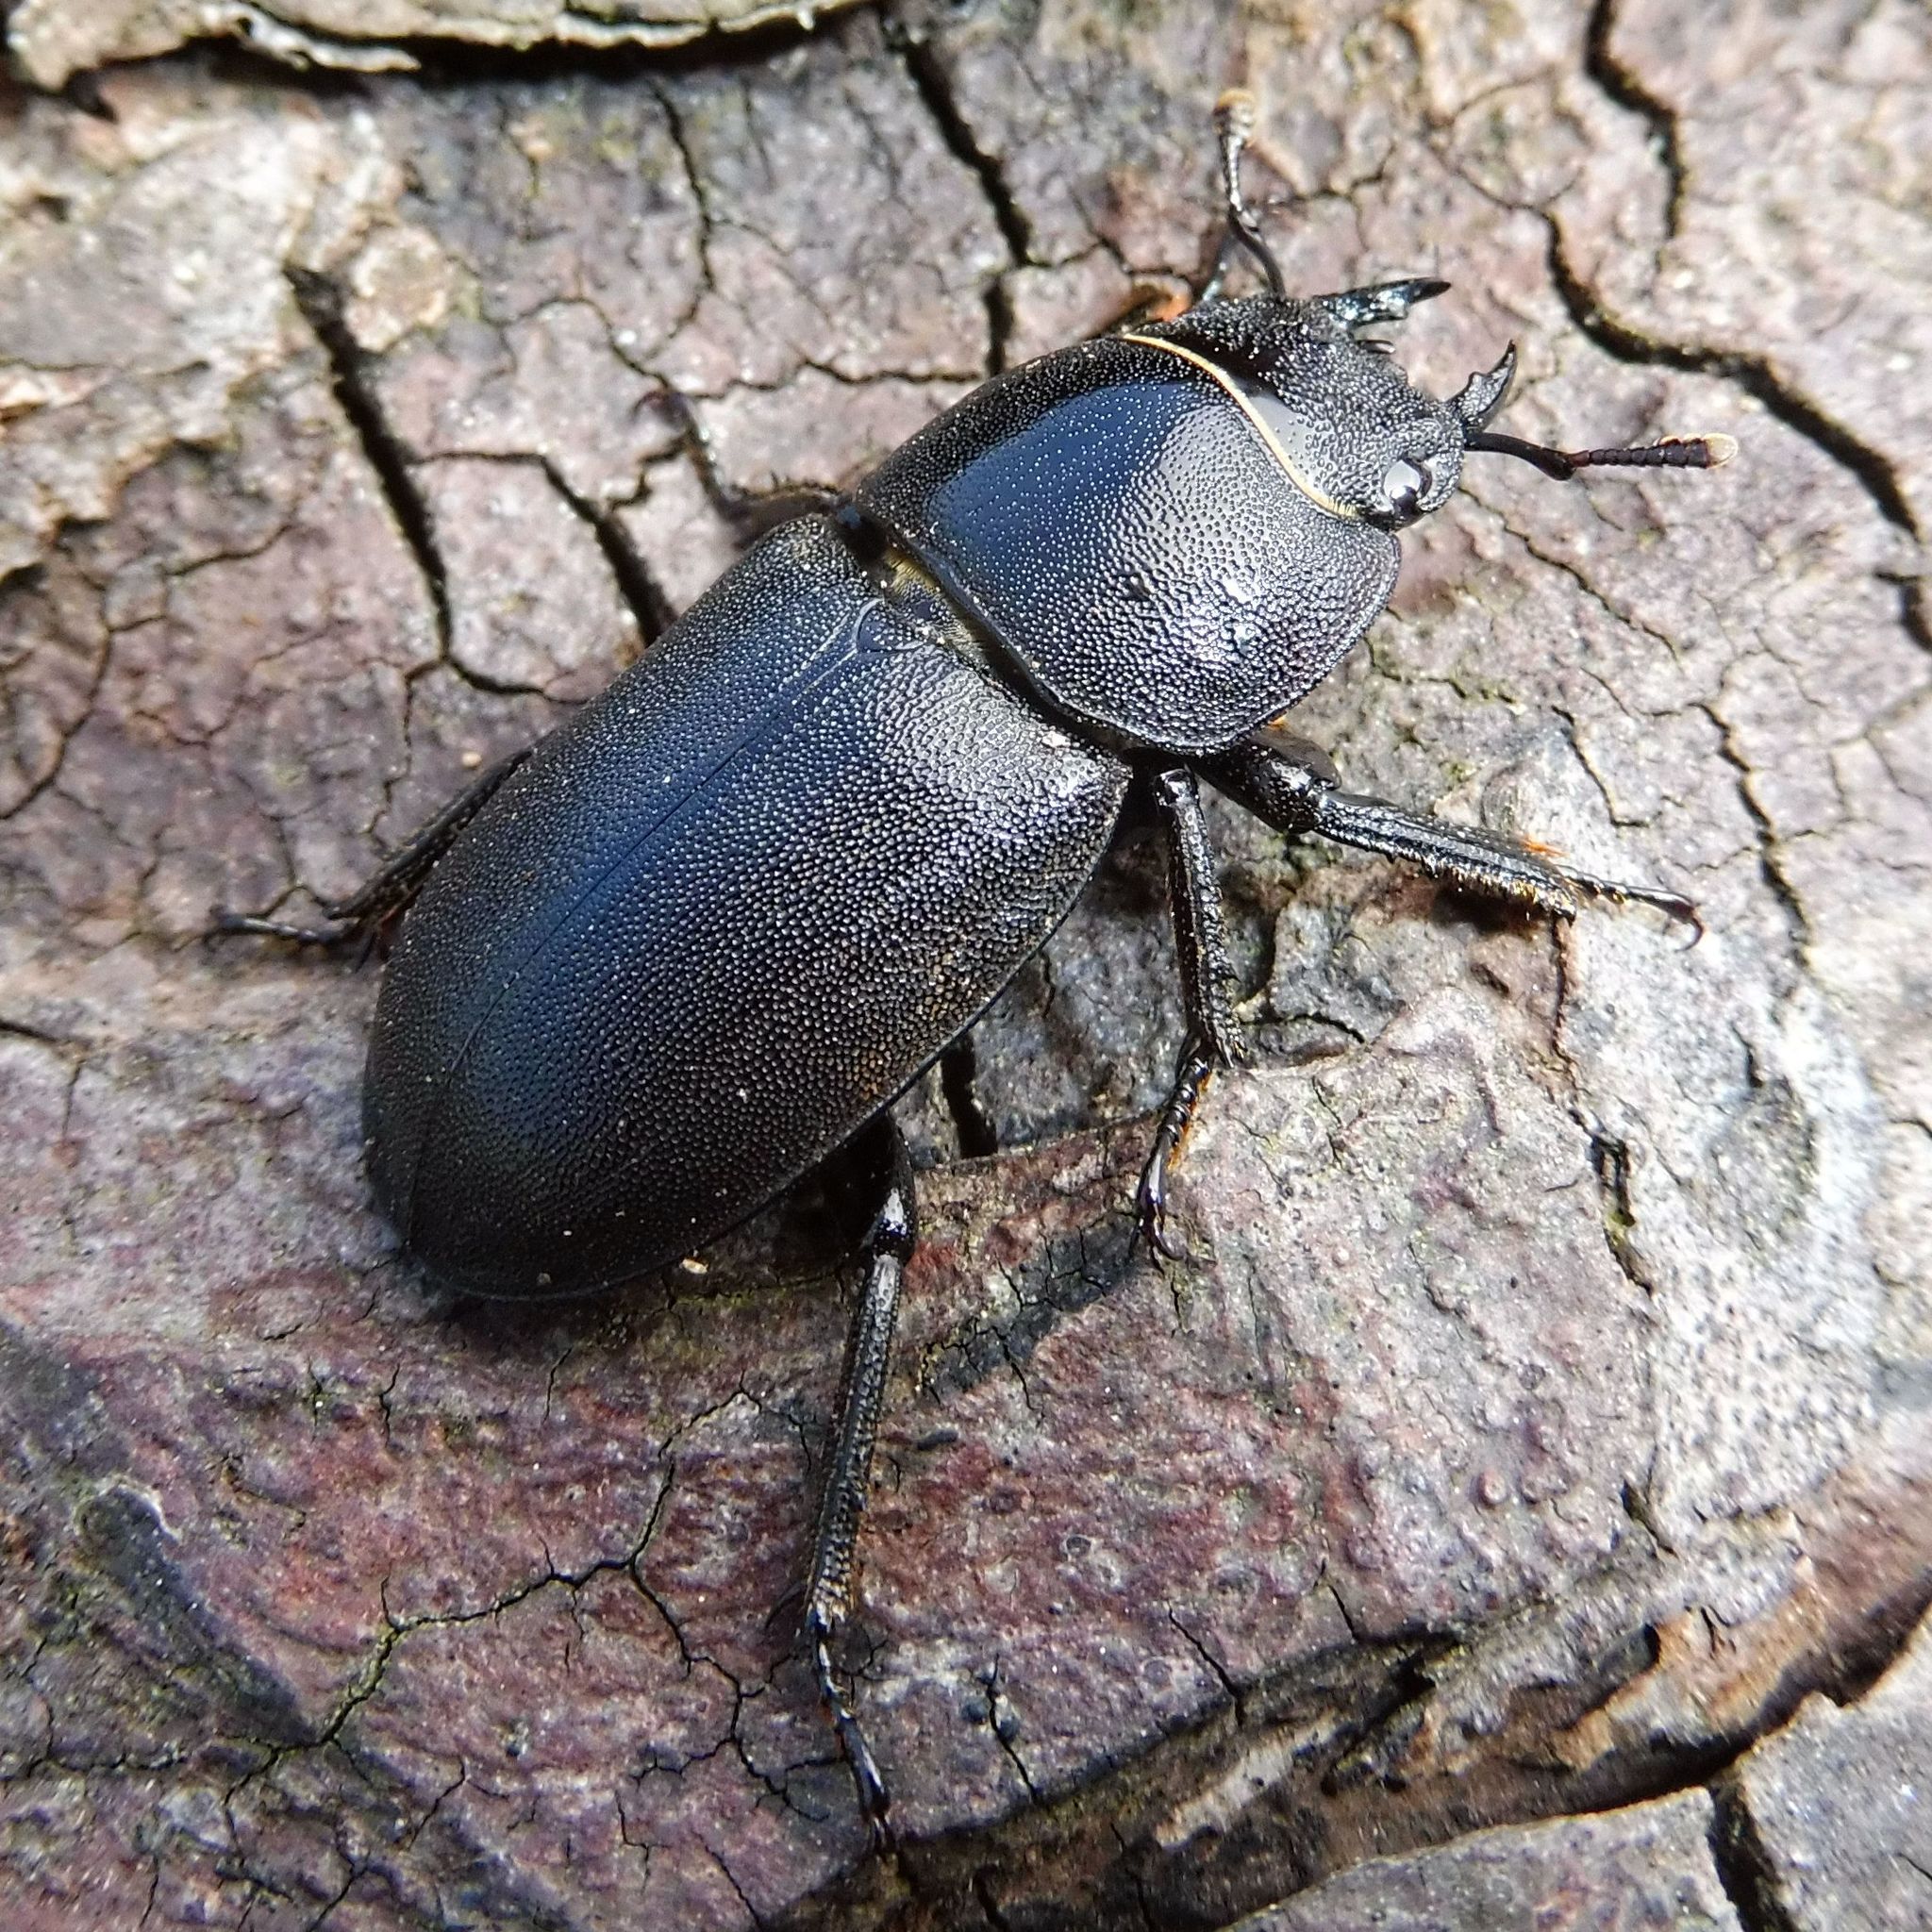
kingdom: Animalia
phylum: Arthropoda
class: Insecta
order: Coleoptera
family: Lucanidae
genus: Dorcus
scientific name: Dorcus parallelipipedus
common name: Lesser stag beetle
